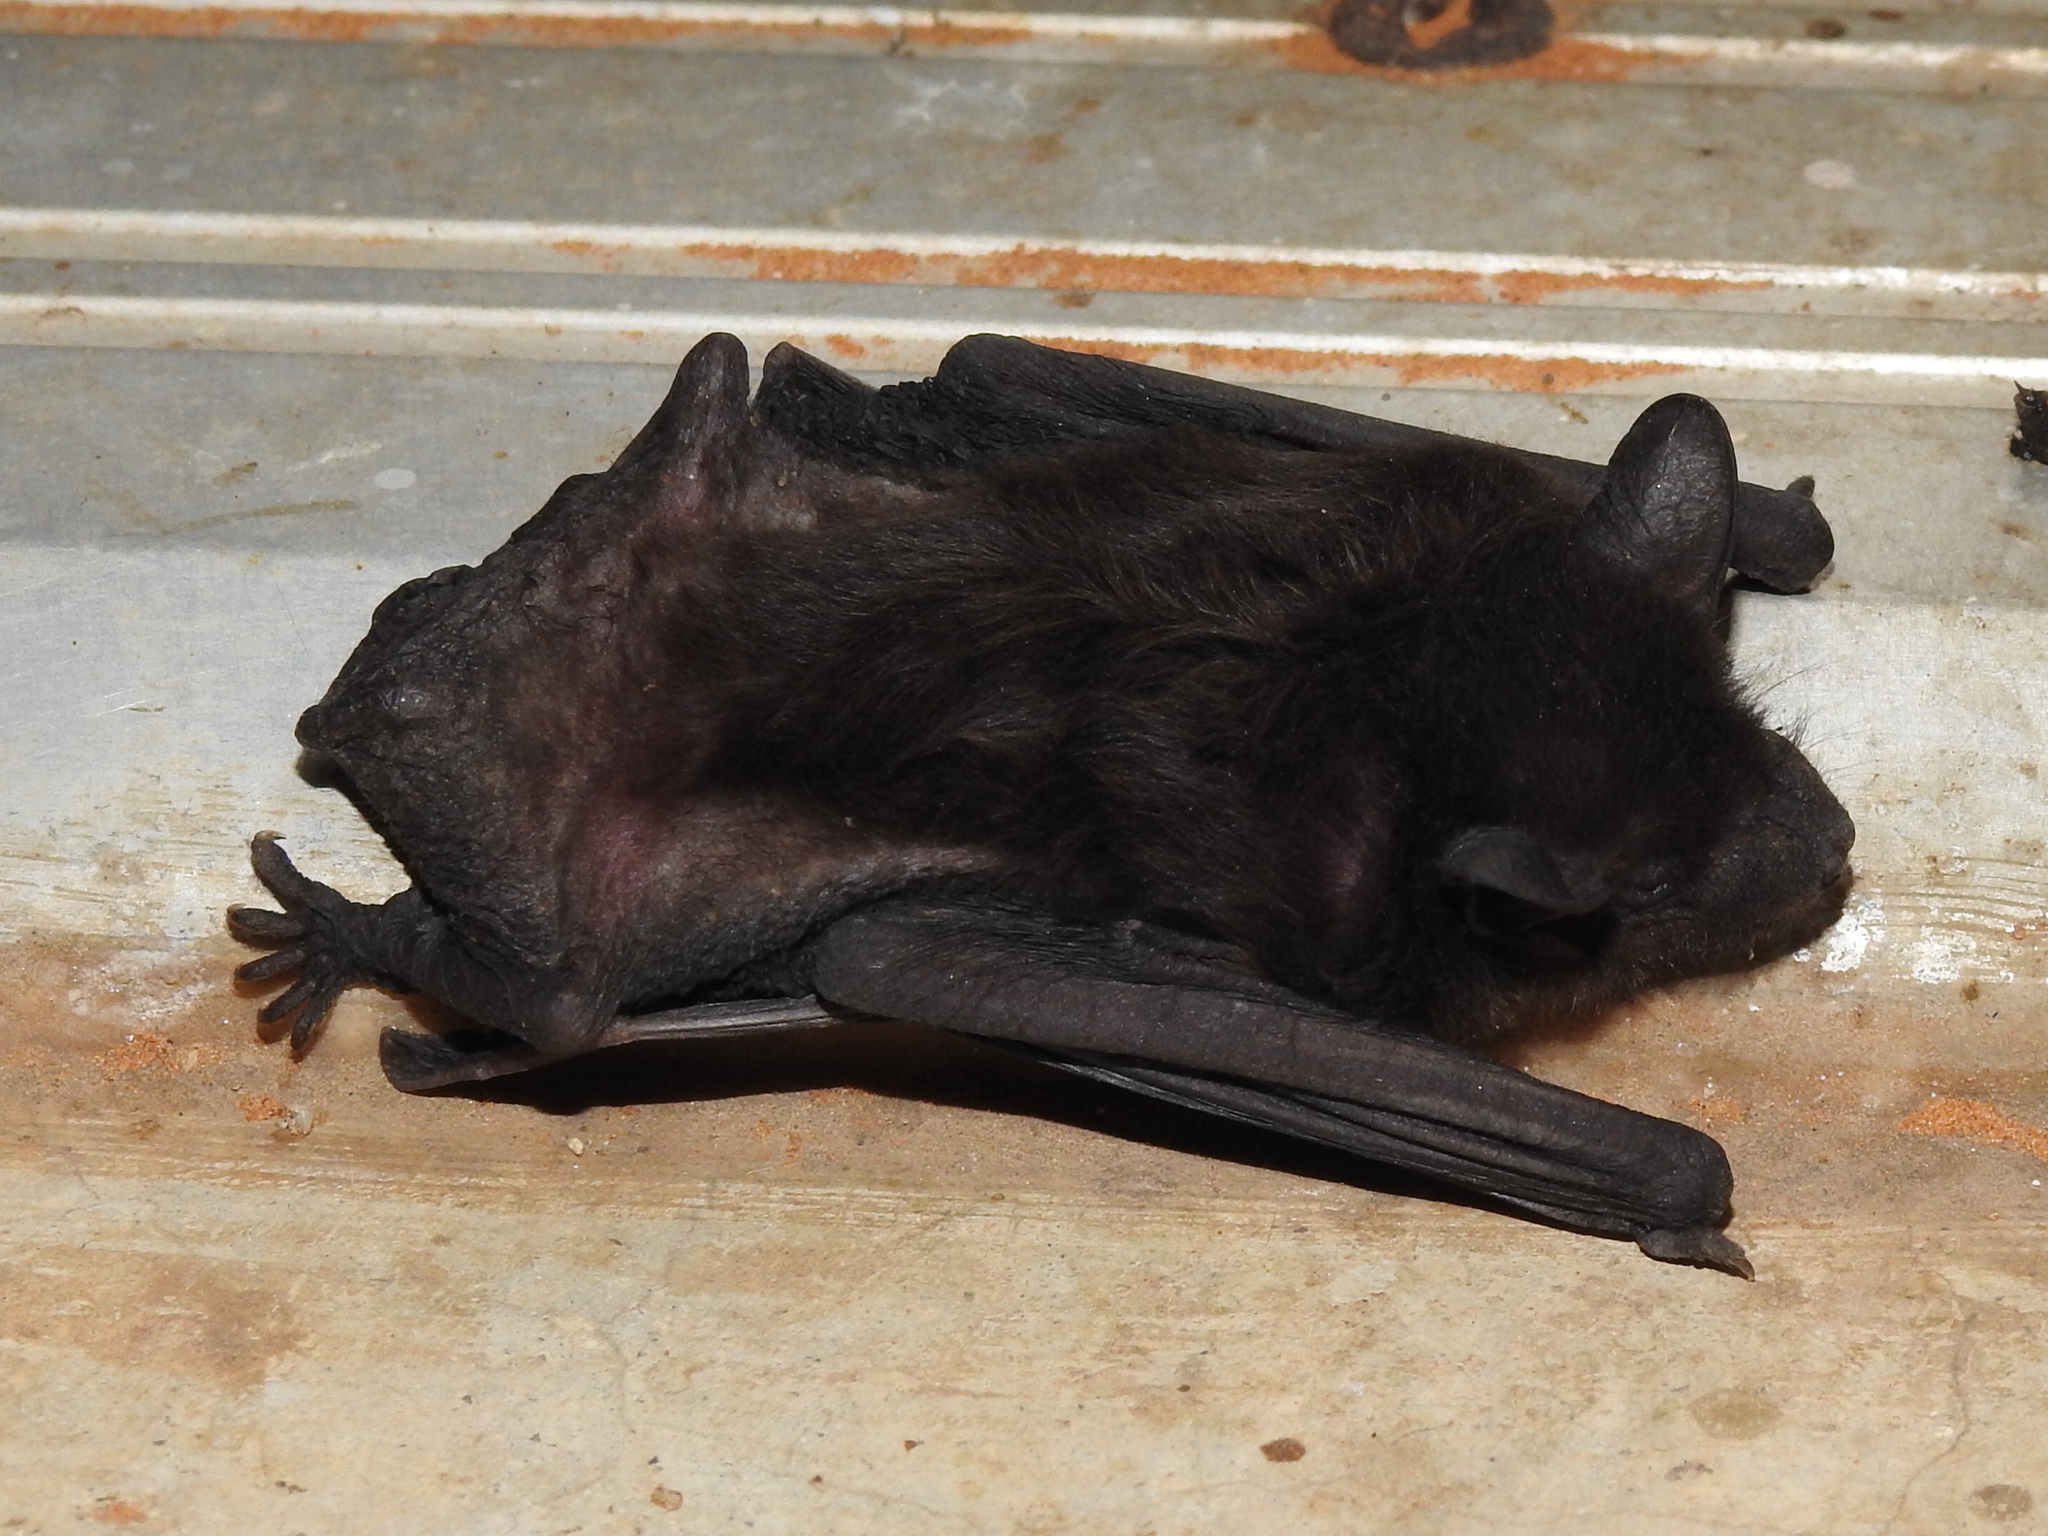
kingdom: Animalia
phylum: Chordata
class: Mammalia
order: Chiroptera
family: Vespertilionidae
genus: Nycticeius
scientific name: Nycticeius humeralis
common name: Evening bat
